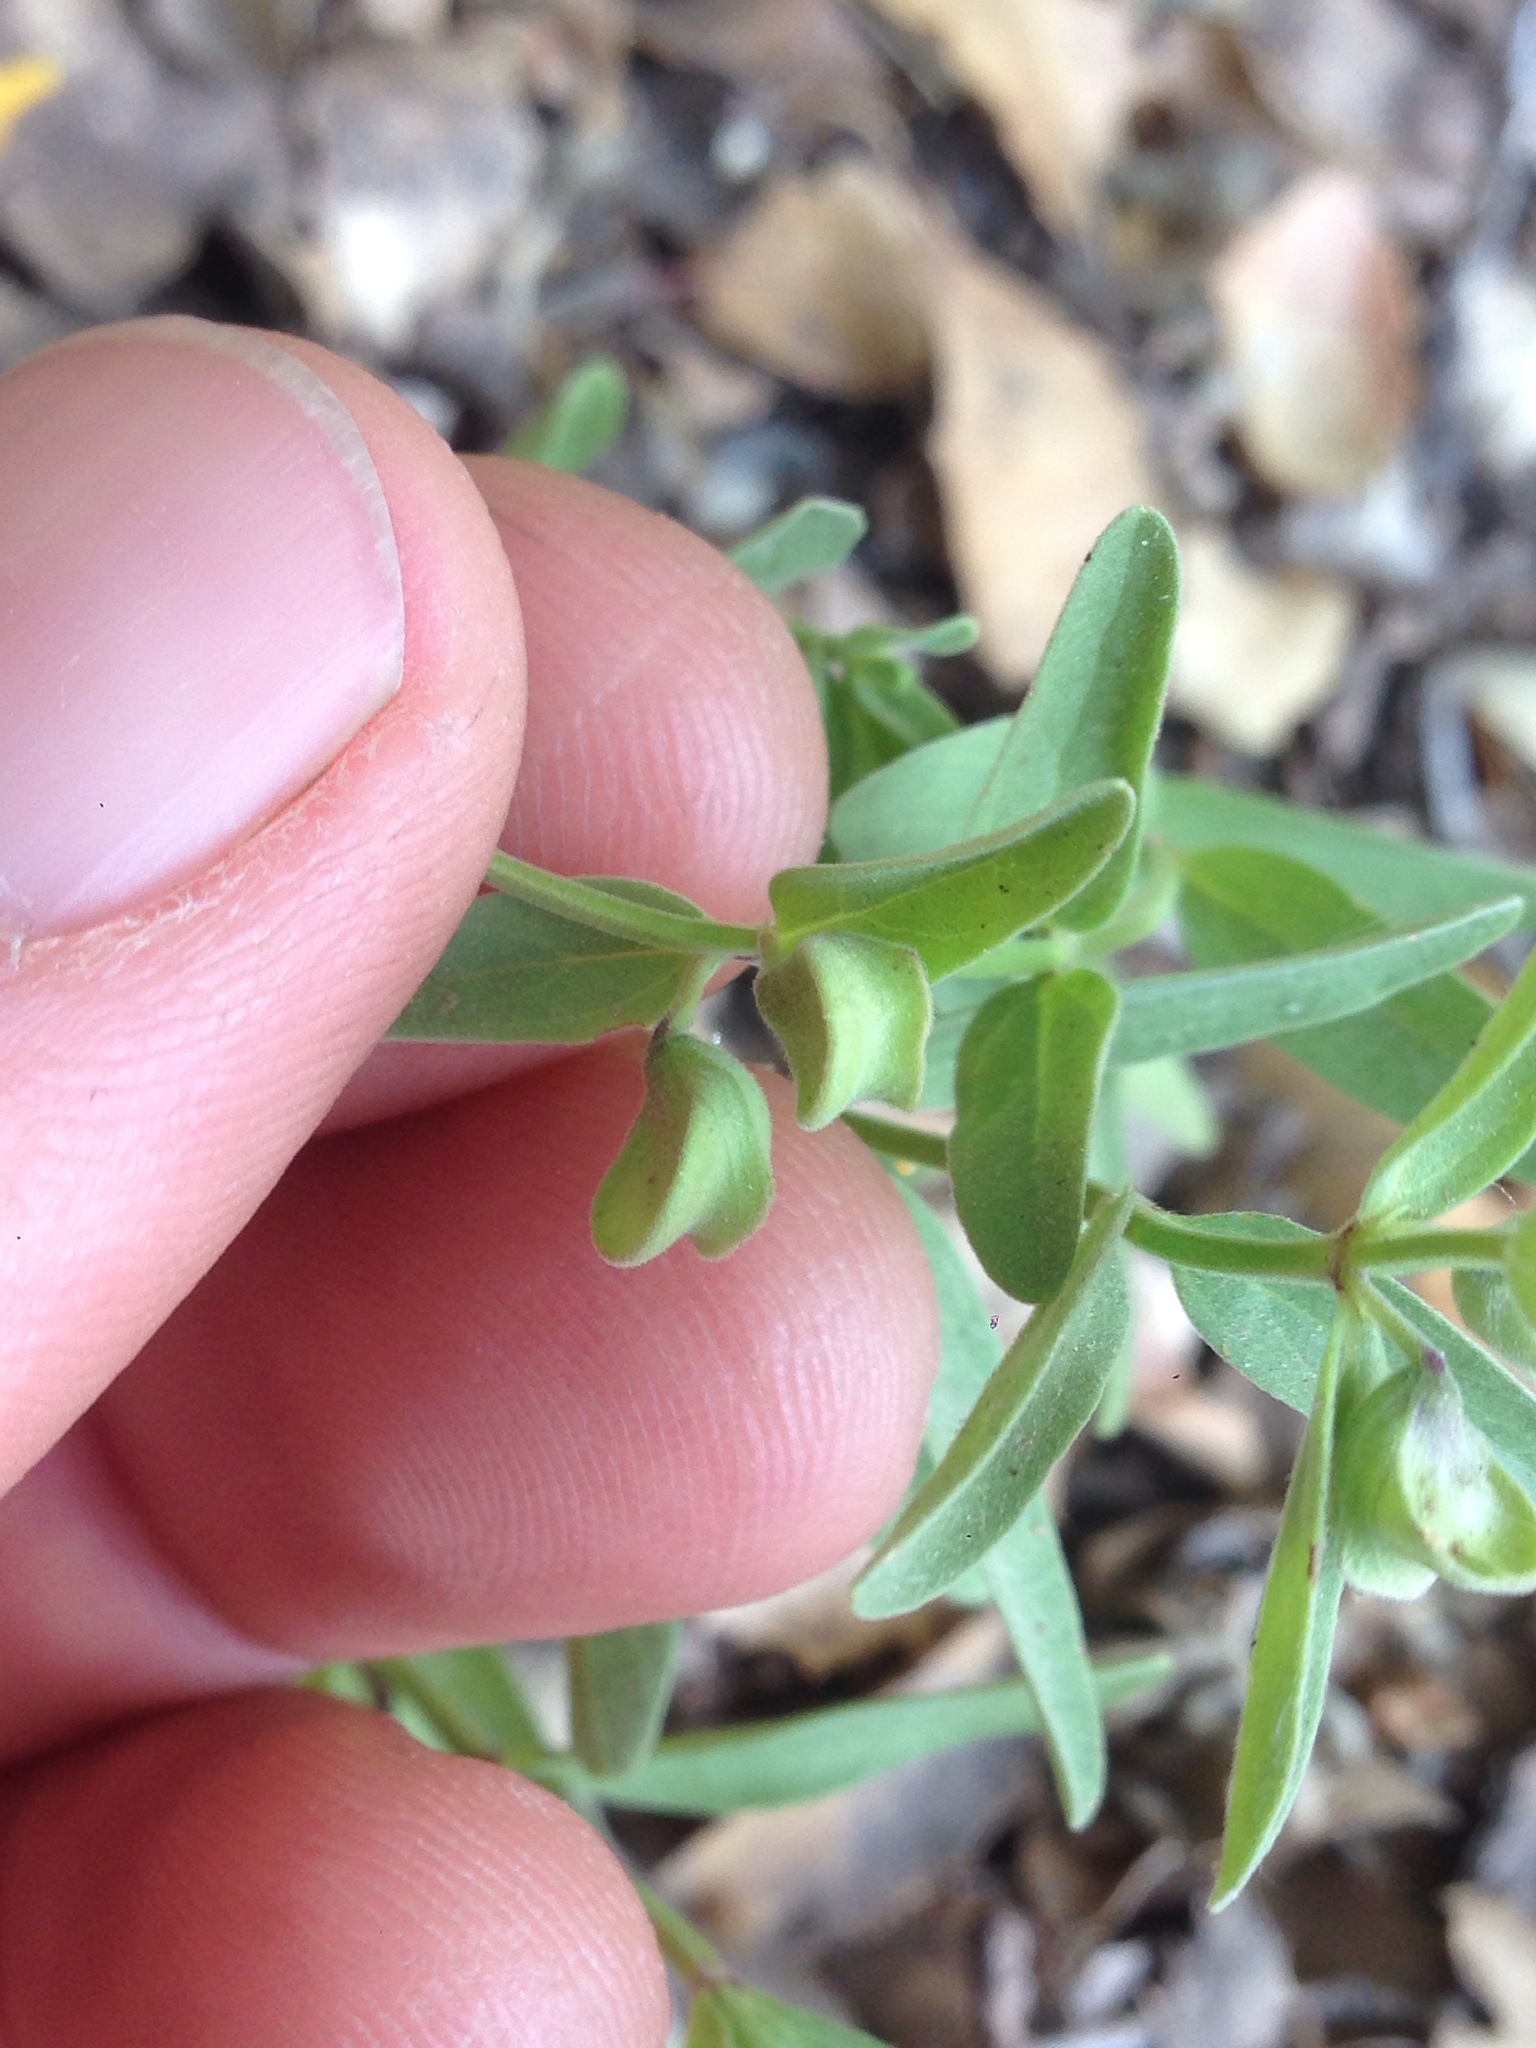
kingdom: Plantae
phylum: Tracheophyta
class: Magnoliopsida
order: Lamiales
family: Lamiaceae
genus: Scutellaria
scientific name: Scutellaria siphocampyloides
